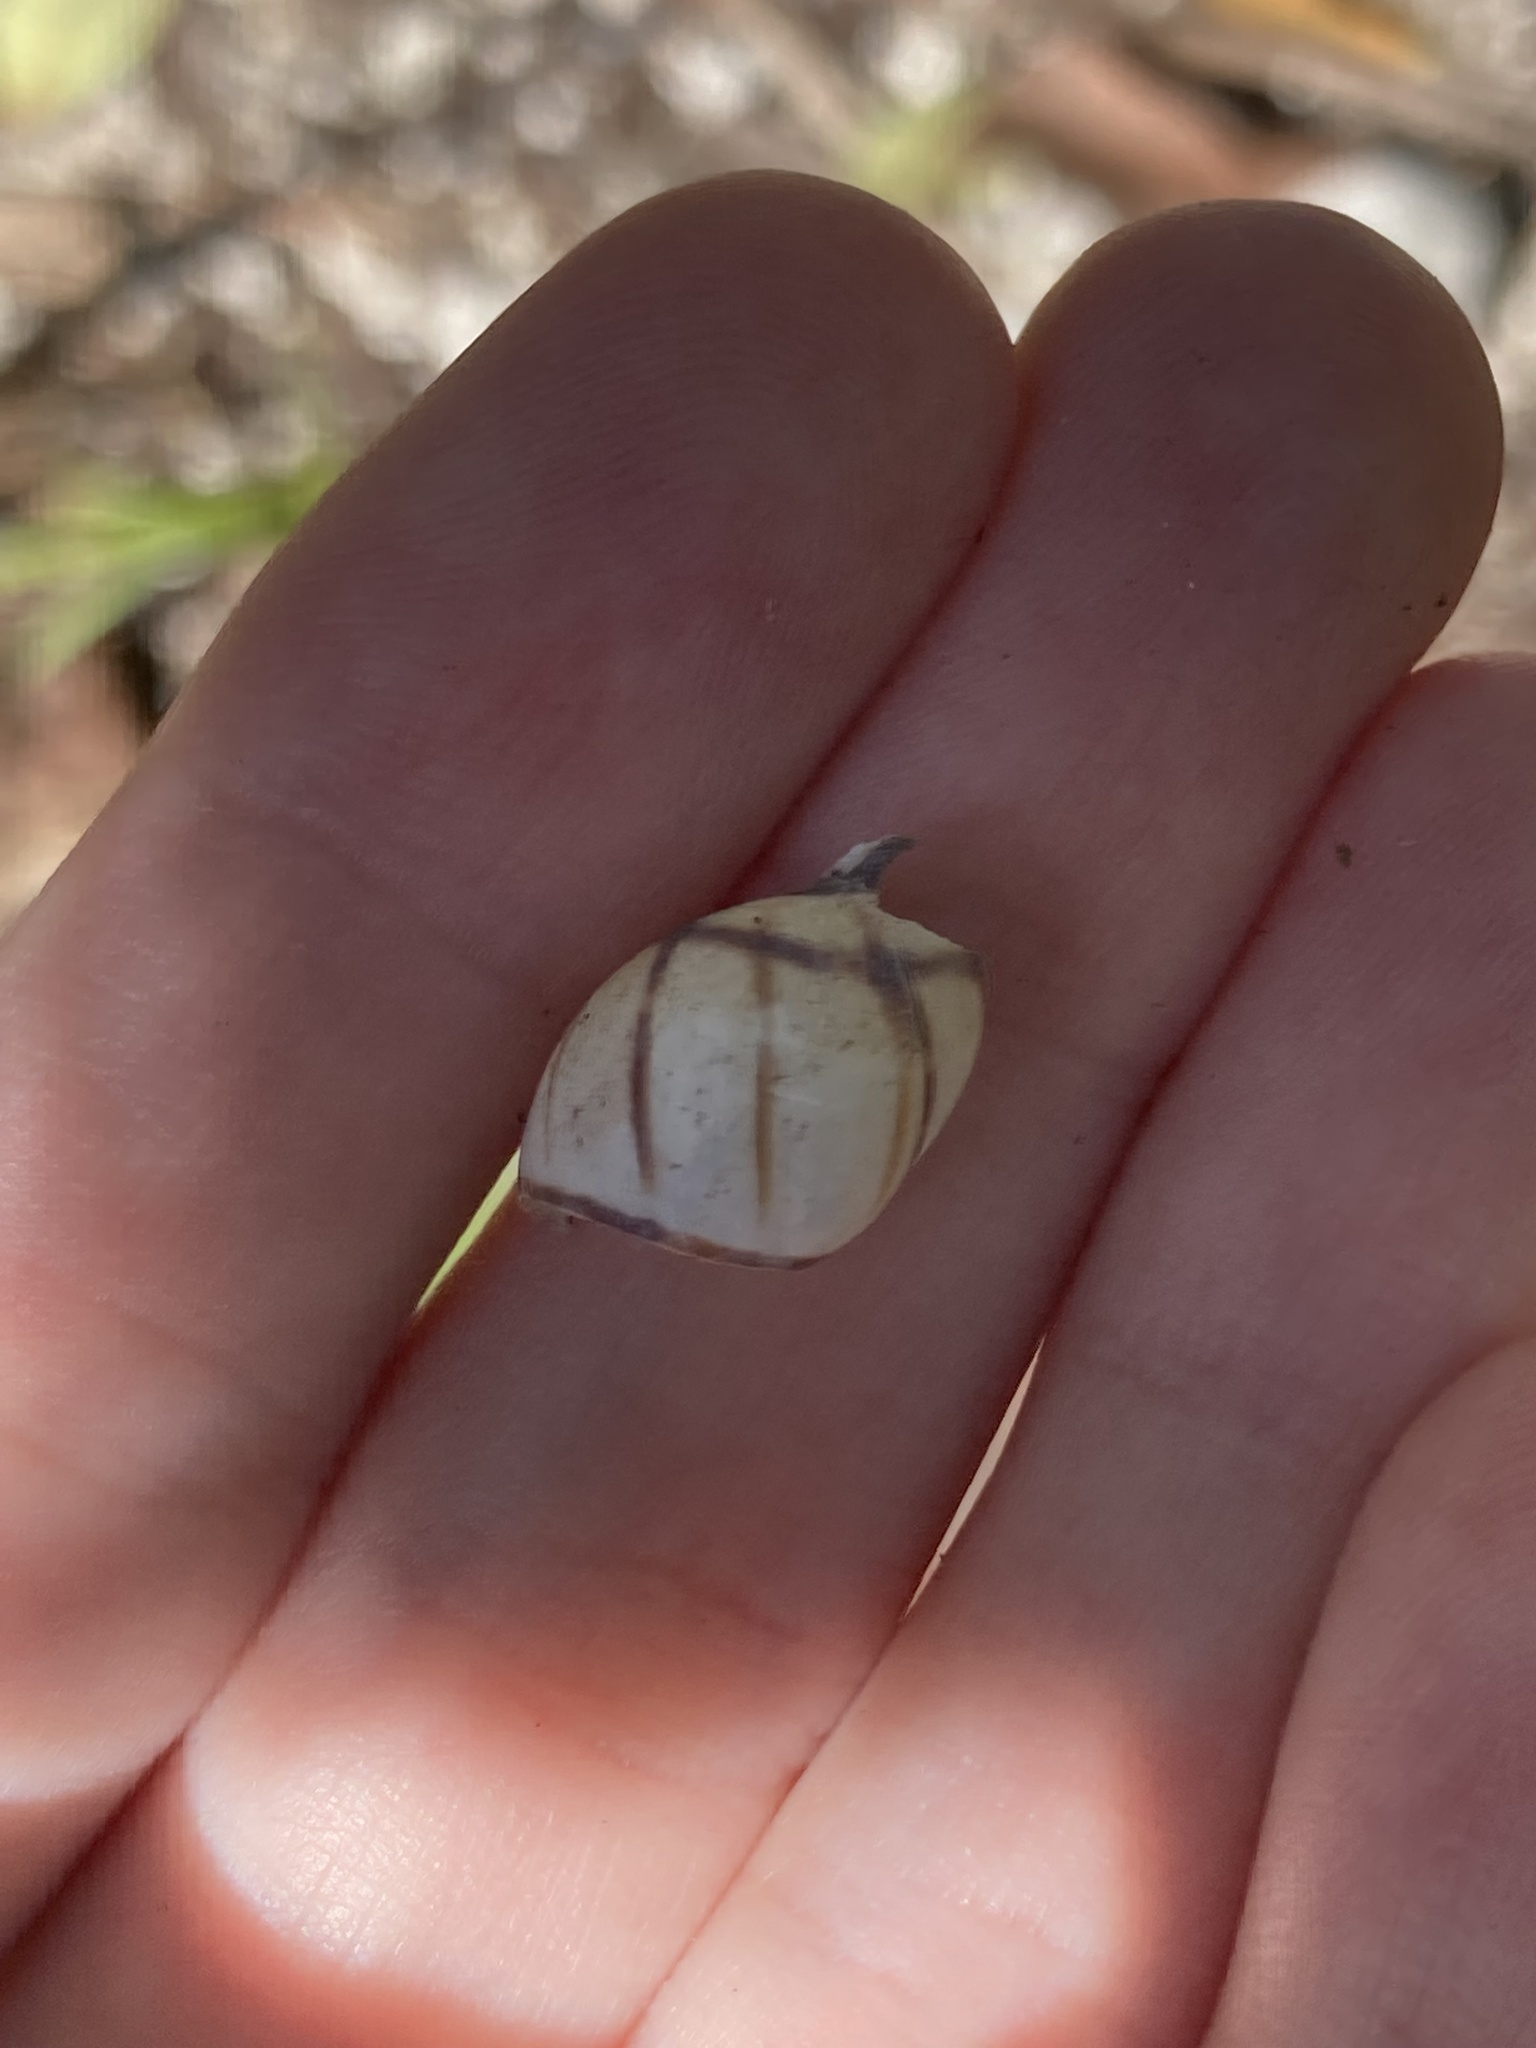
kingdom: Animalia
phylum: Mollusca
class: Gastropoda
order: Stylommatophora
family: Bulimulidae
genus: Drymaeus
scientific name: Drymaeus
